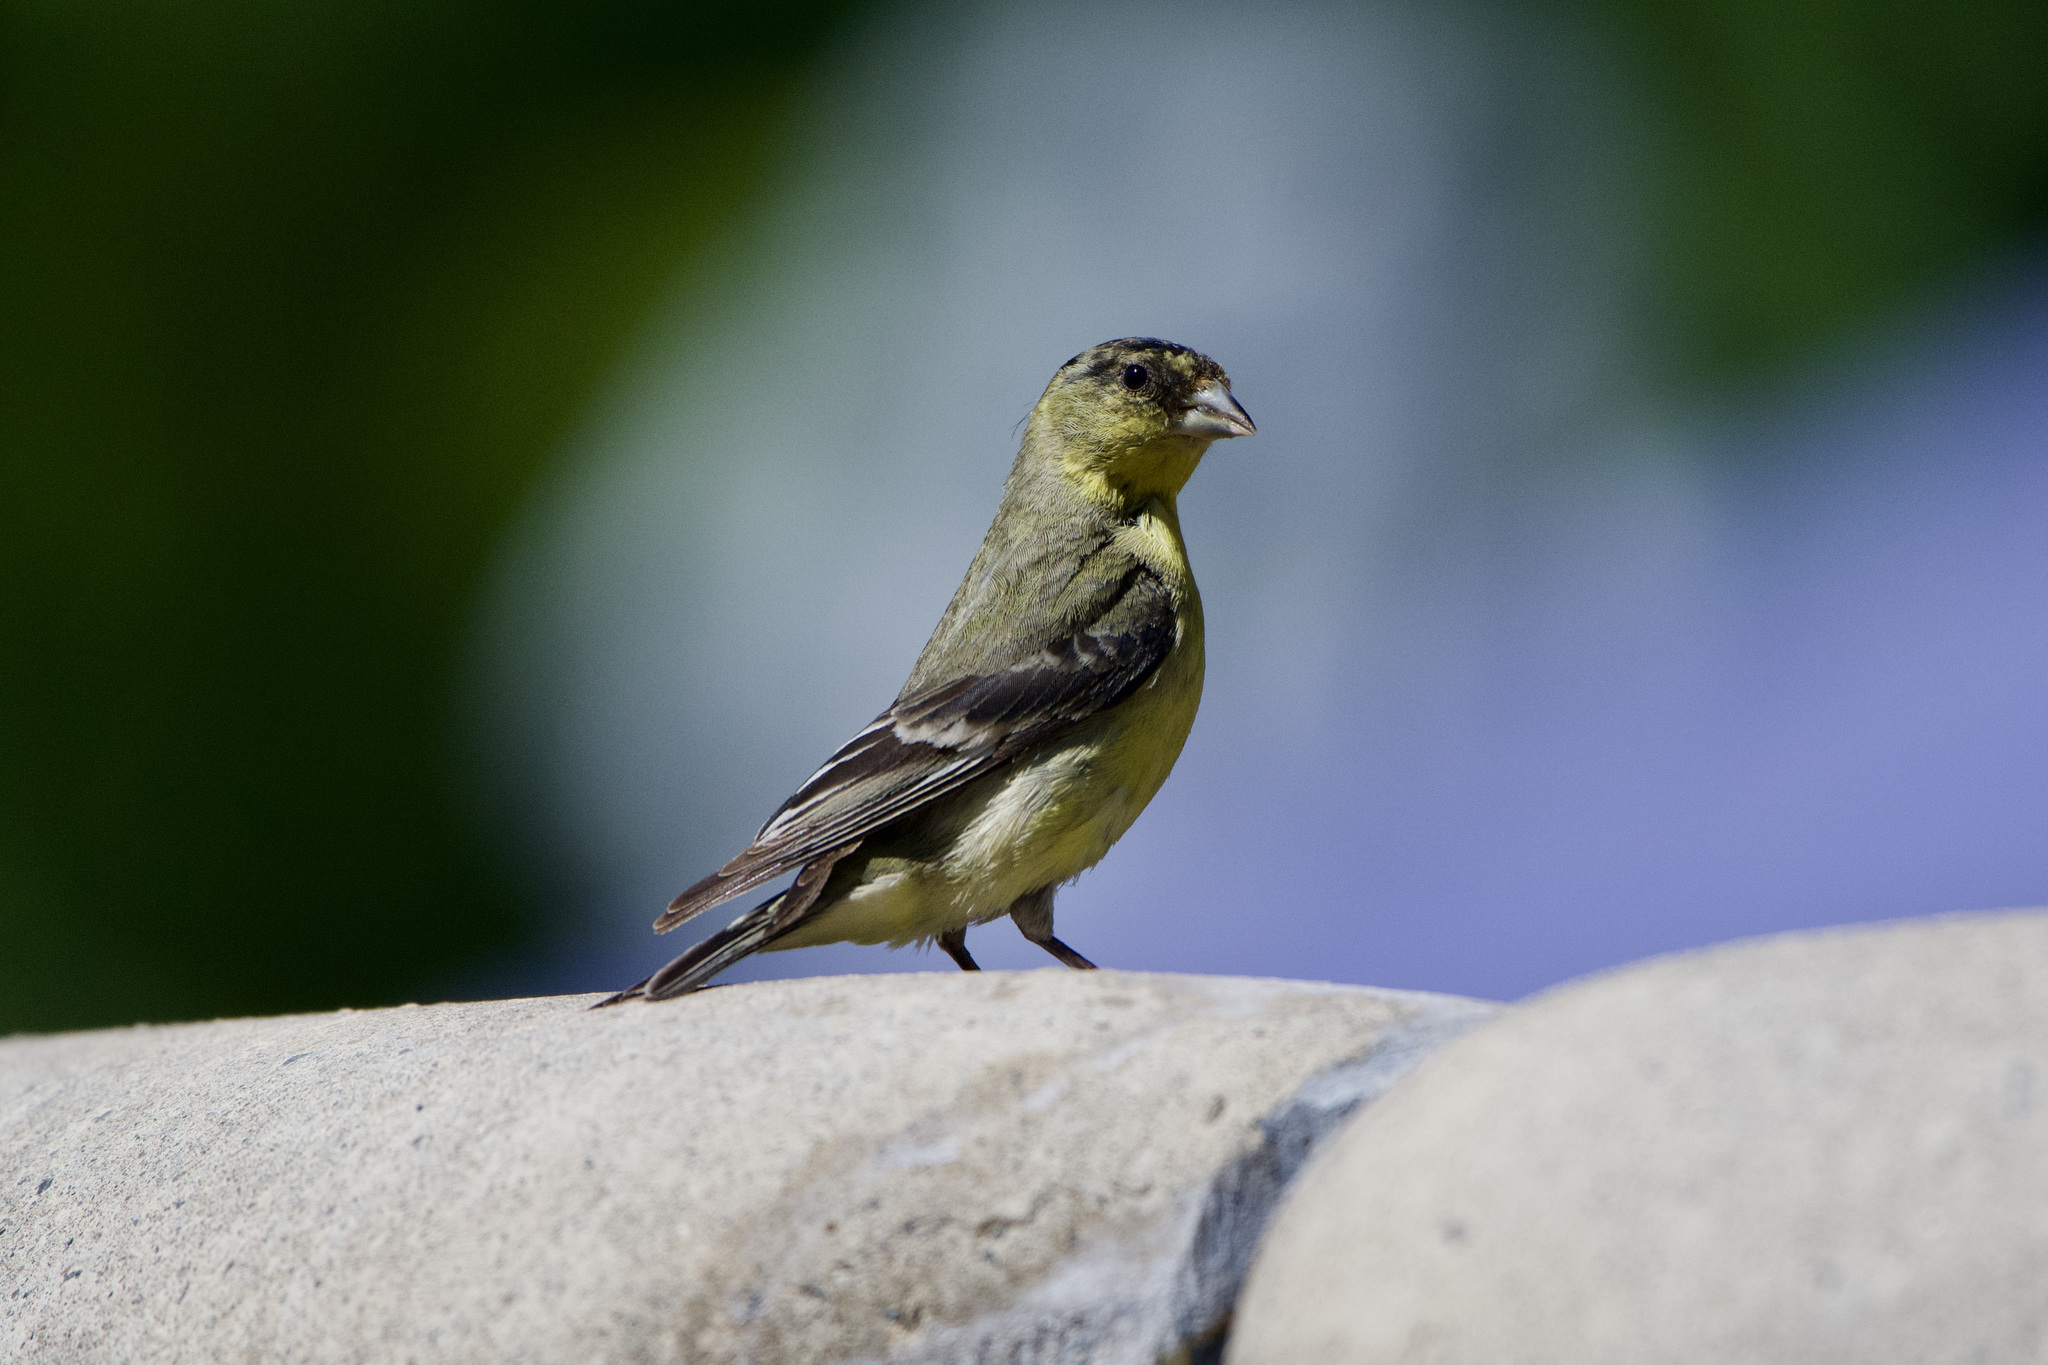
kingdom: Animalia
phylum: Chordata
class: Aves
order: Passeriformes
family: Fringillidae
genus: Spinus
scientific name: Spinus psaltria
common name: Lesser goldfinch
